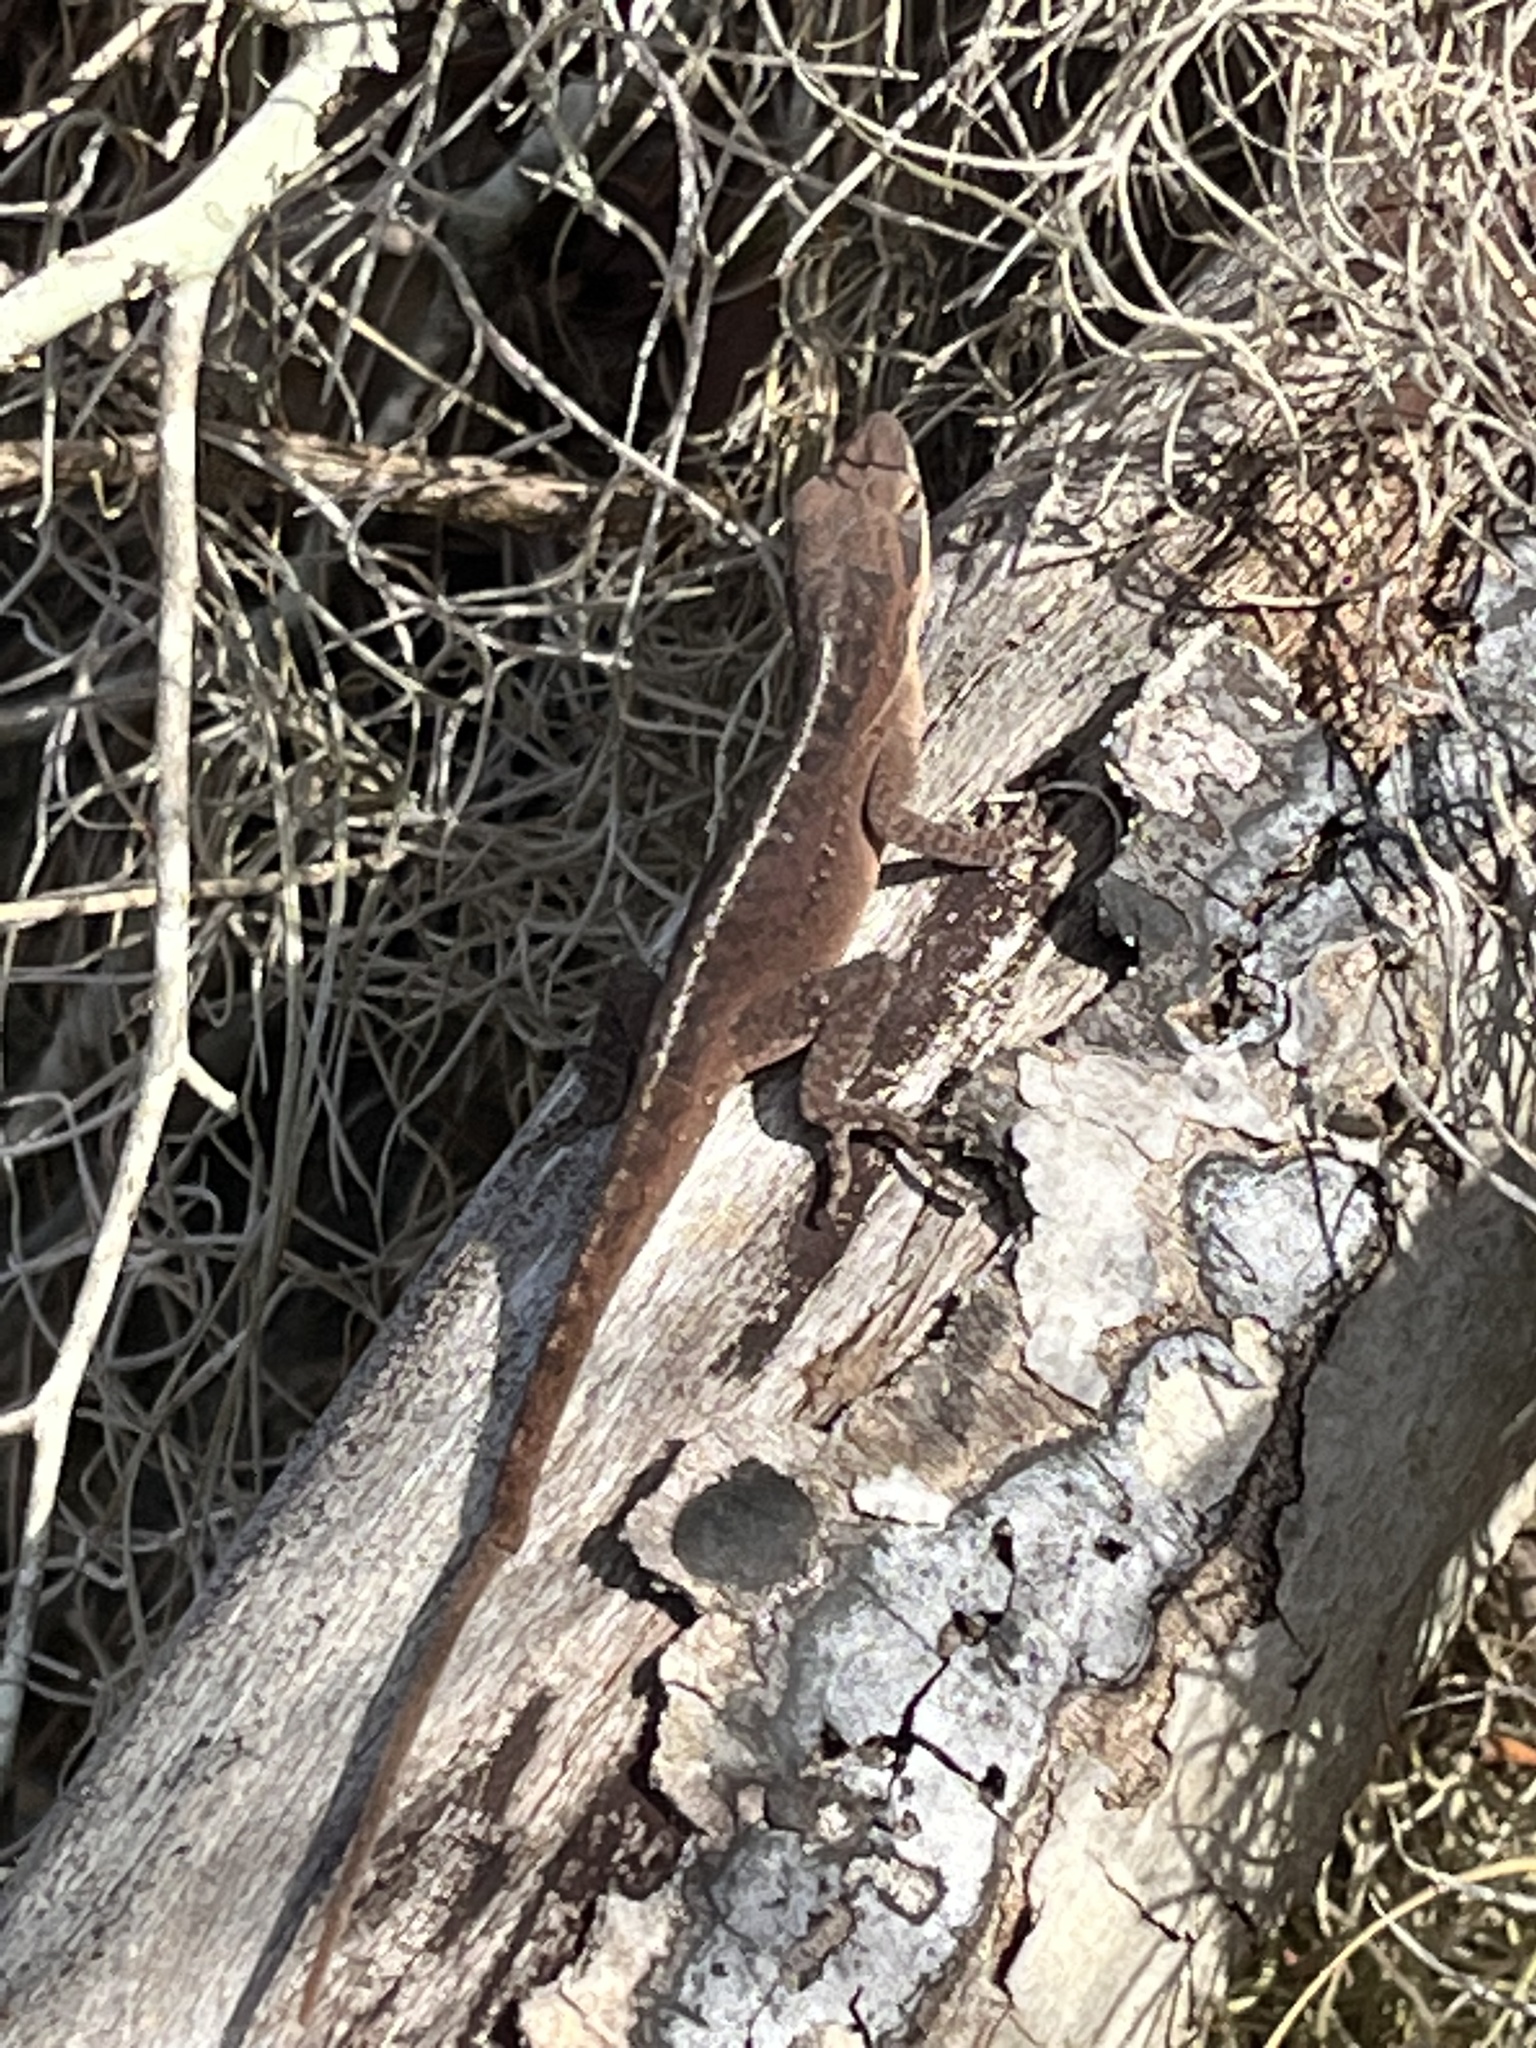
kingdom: Animalia
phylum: Chordata
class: Squamata
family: Dactyloidae
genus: Anolis
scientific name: Anolis carolinensis
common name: Green anole
